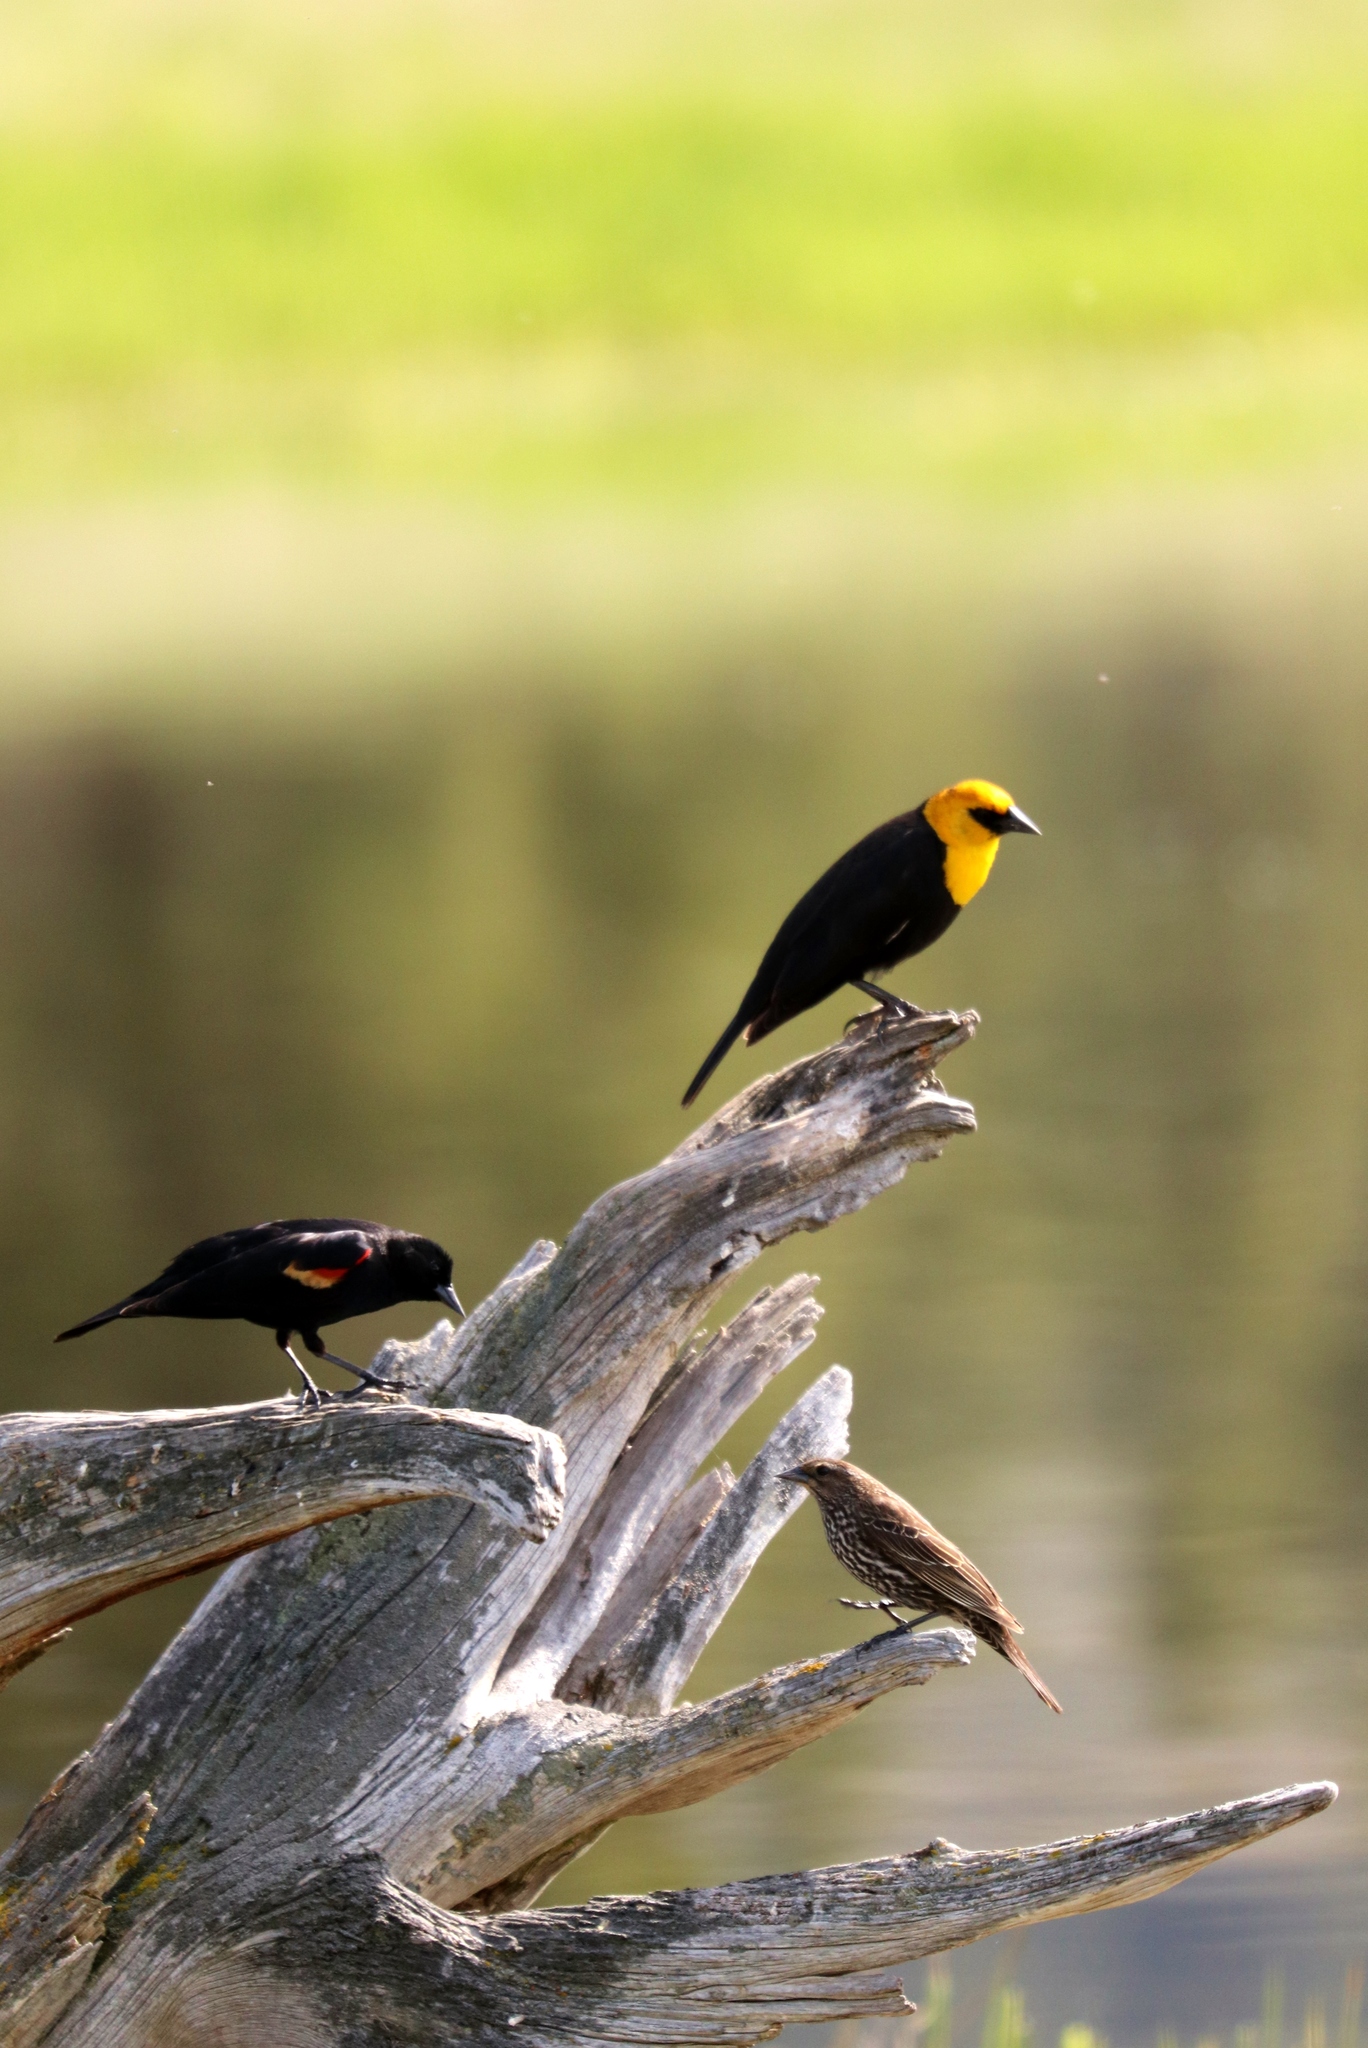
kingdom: Animalia
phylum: Chordata
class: Aves
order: Passeriformes
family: Icteridae
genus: Xanthocephalus
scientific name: Xanthocephalus xanthocephalus
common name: Yellow-headed blackbird
